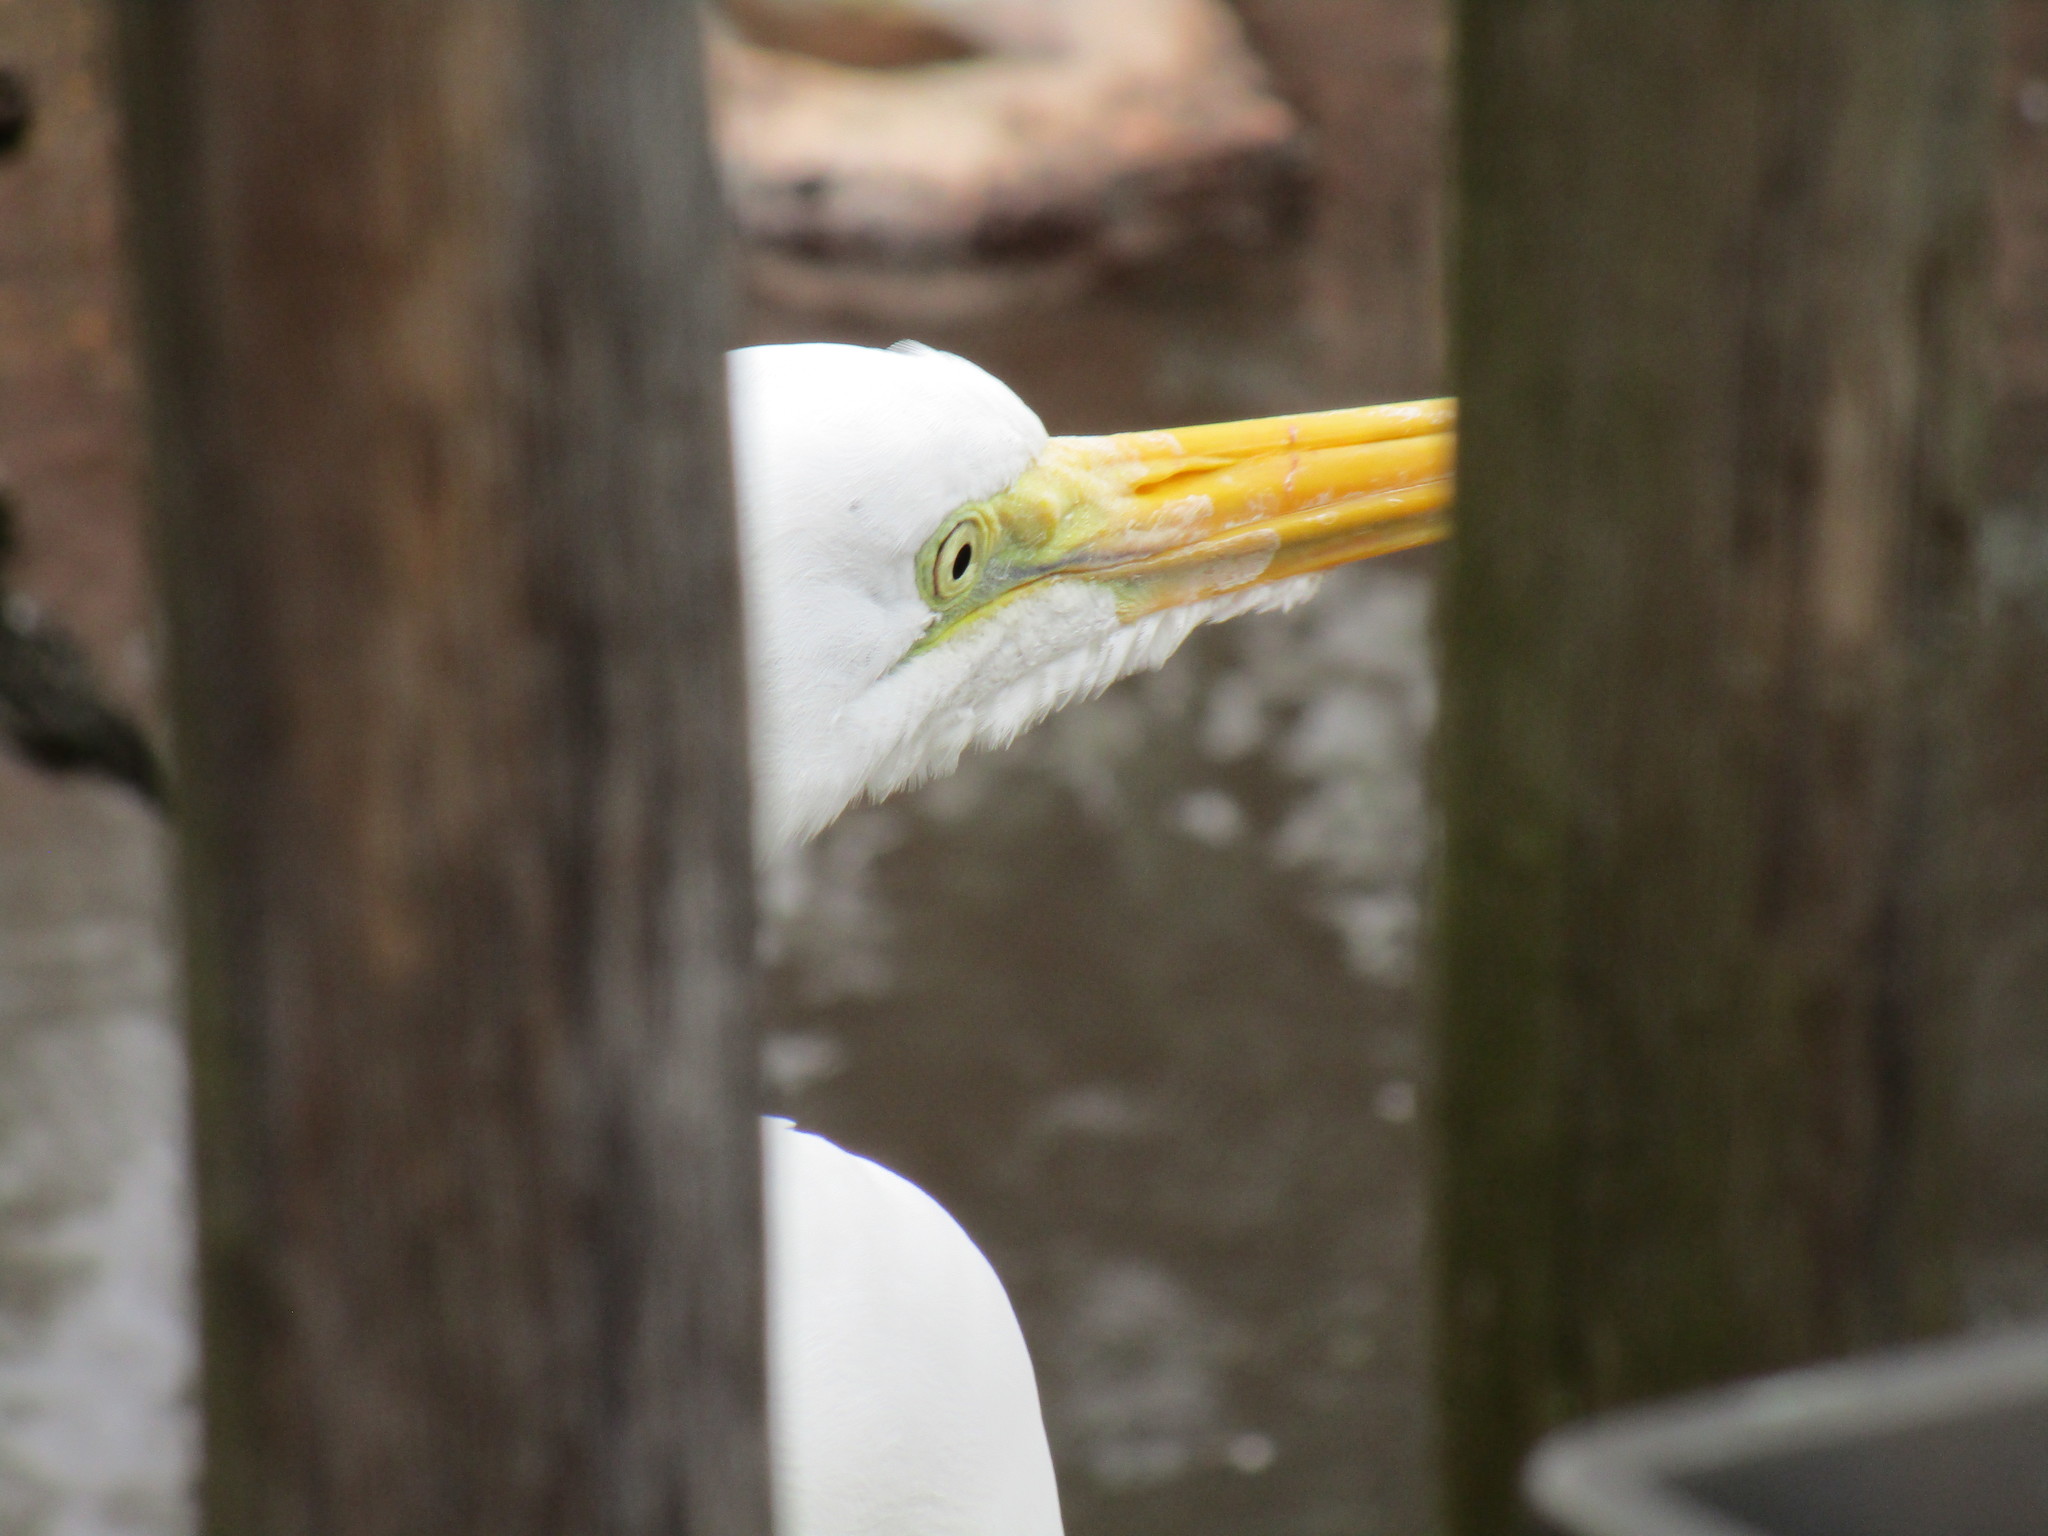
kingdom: Animalia
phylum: Chordata
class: Aves
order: Pelecaniformes
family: Ardeidae
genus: Ardea
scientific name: Ardea alba
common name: Great egret
